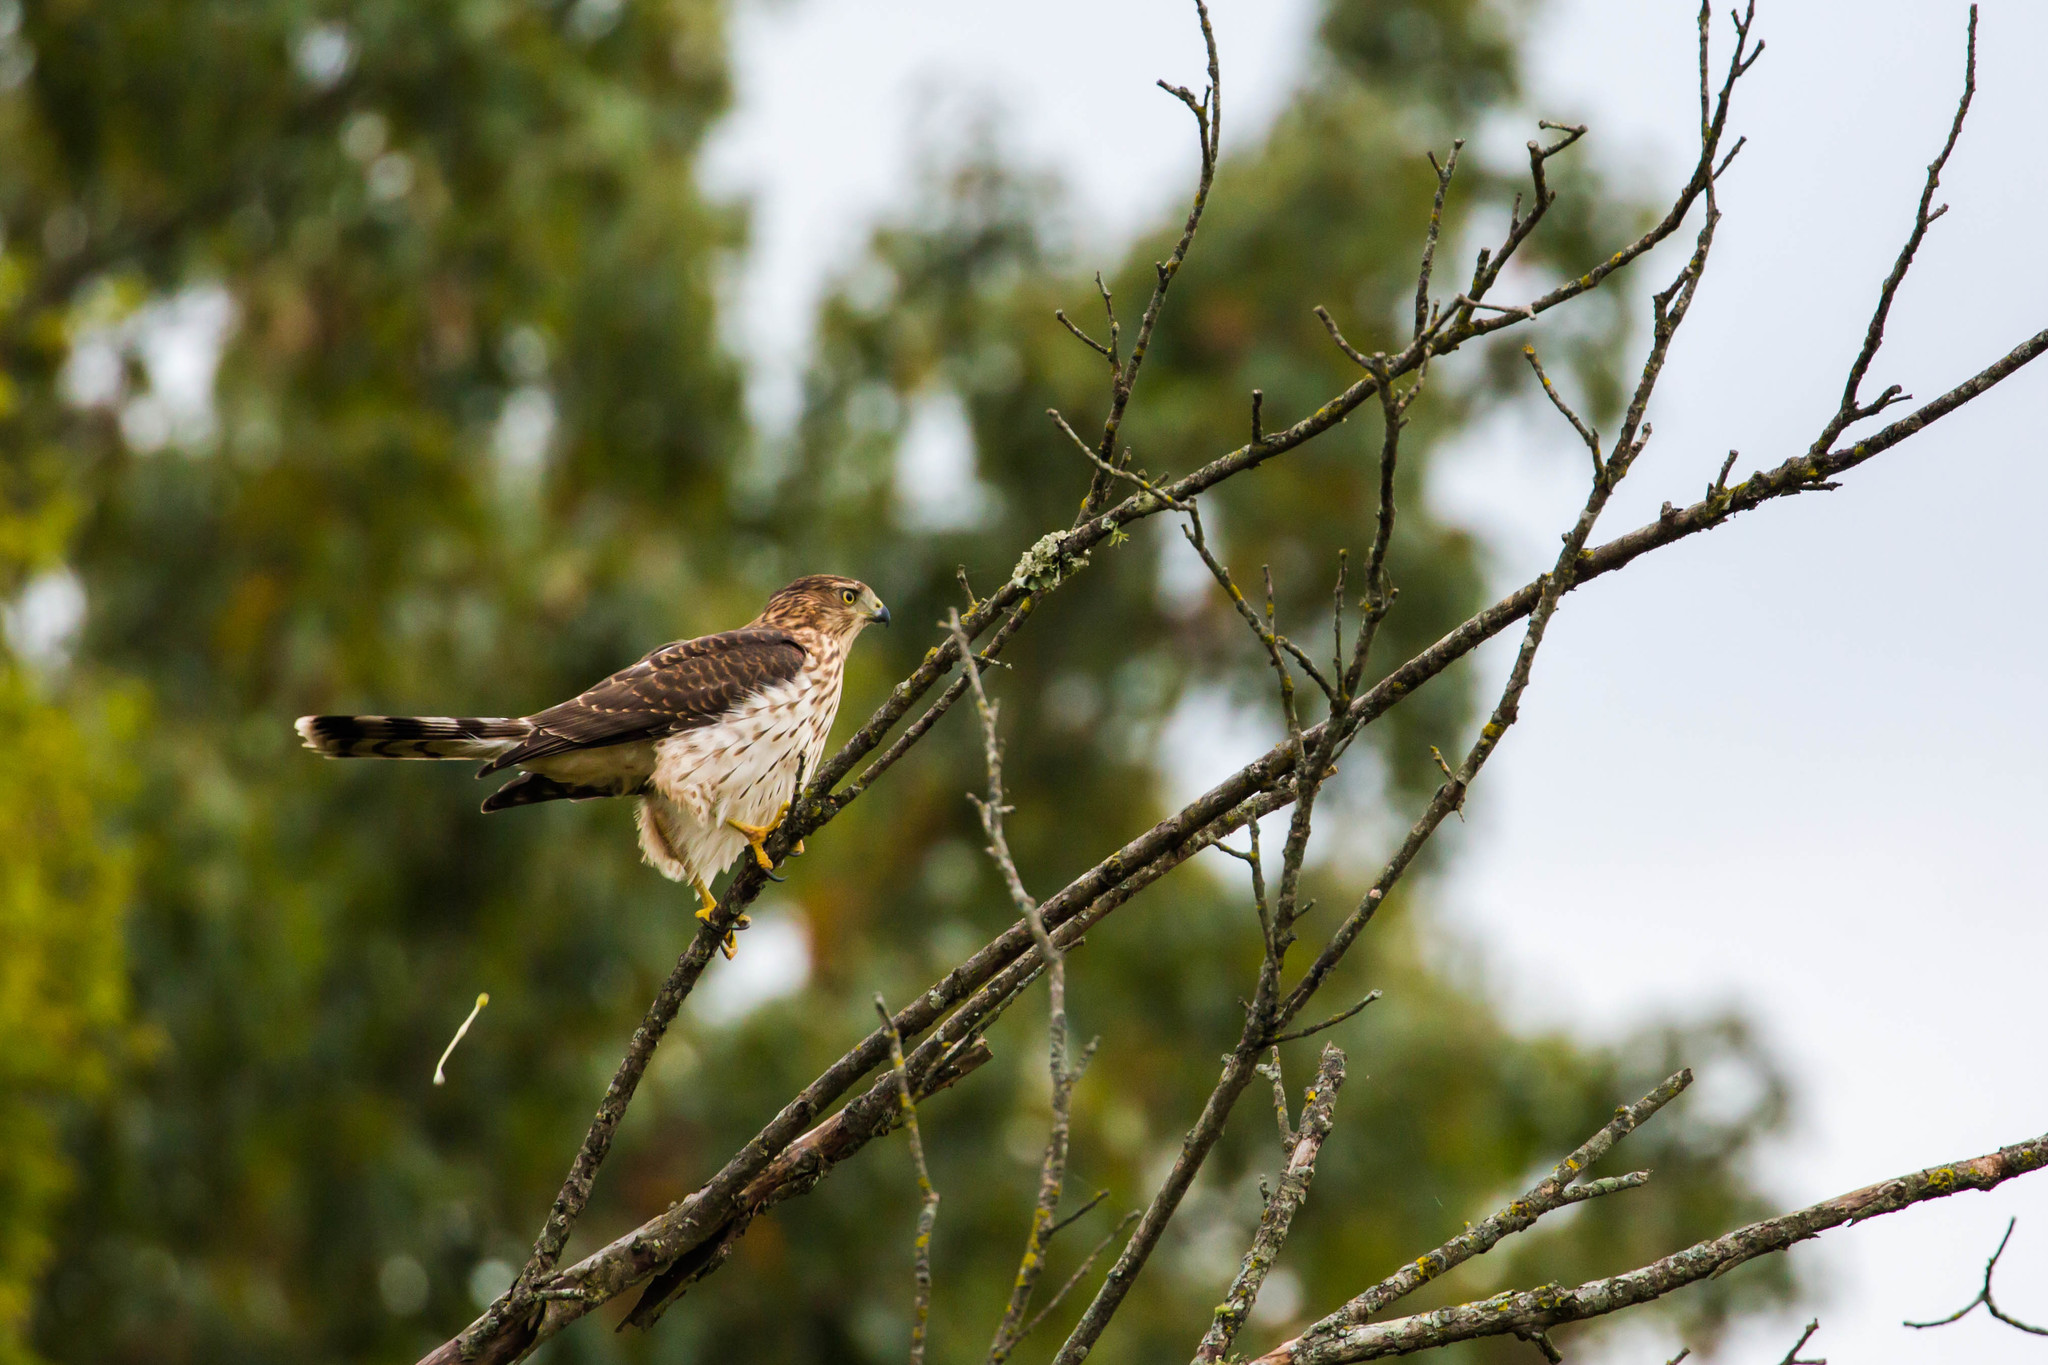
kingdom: Animalia
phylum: Chordata
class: Aves
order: Accipitriformes
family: Accipitridae
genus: Accipiter
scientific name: Accipiter cooperii
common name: Cooper's hawk
